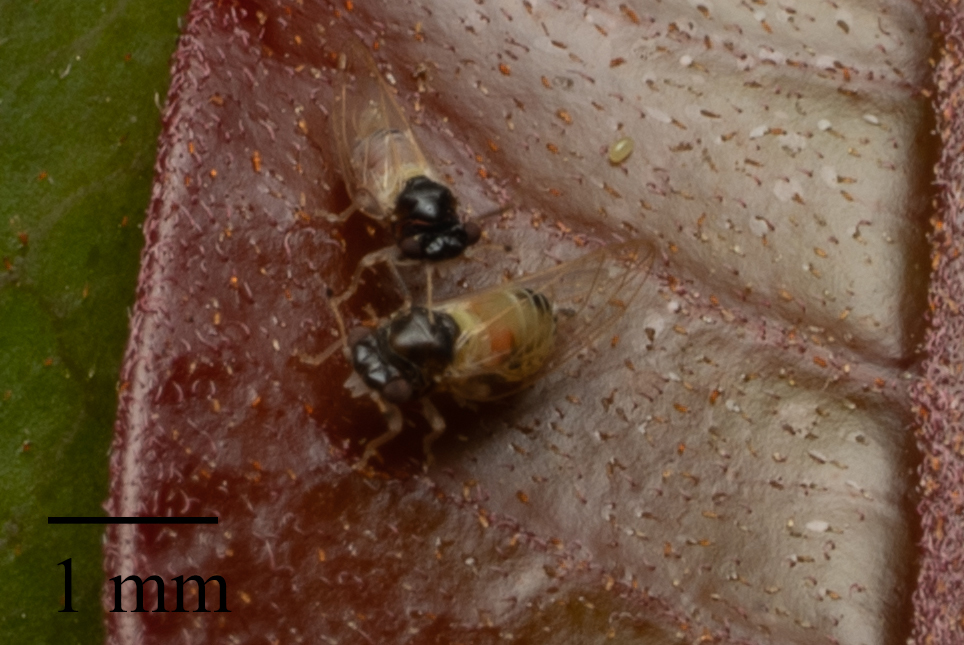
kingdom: Animalia
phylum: Arthropoda
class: Insecta
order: Hemiptera
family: Calophyidae
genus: Calophya
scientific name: Calophya californica
